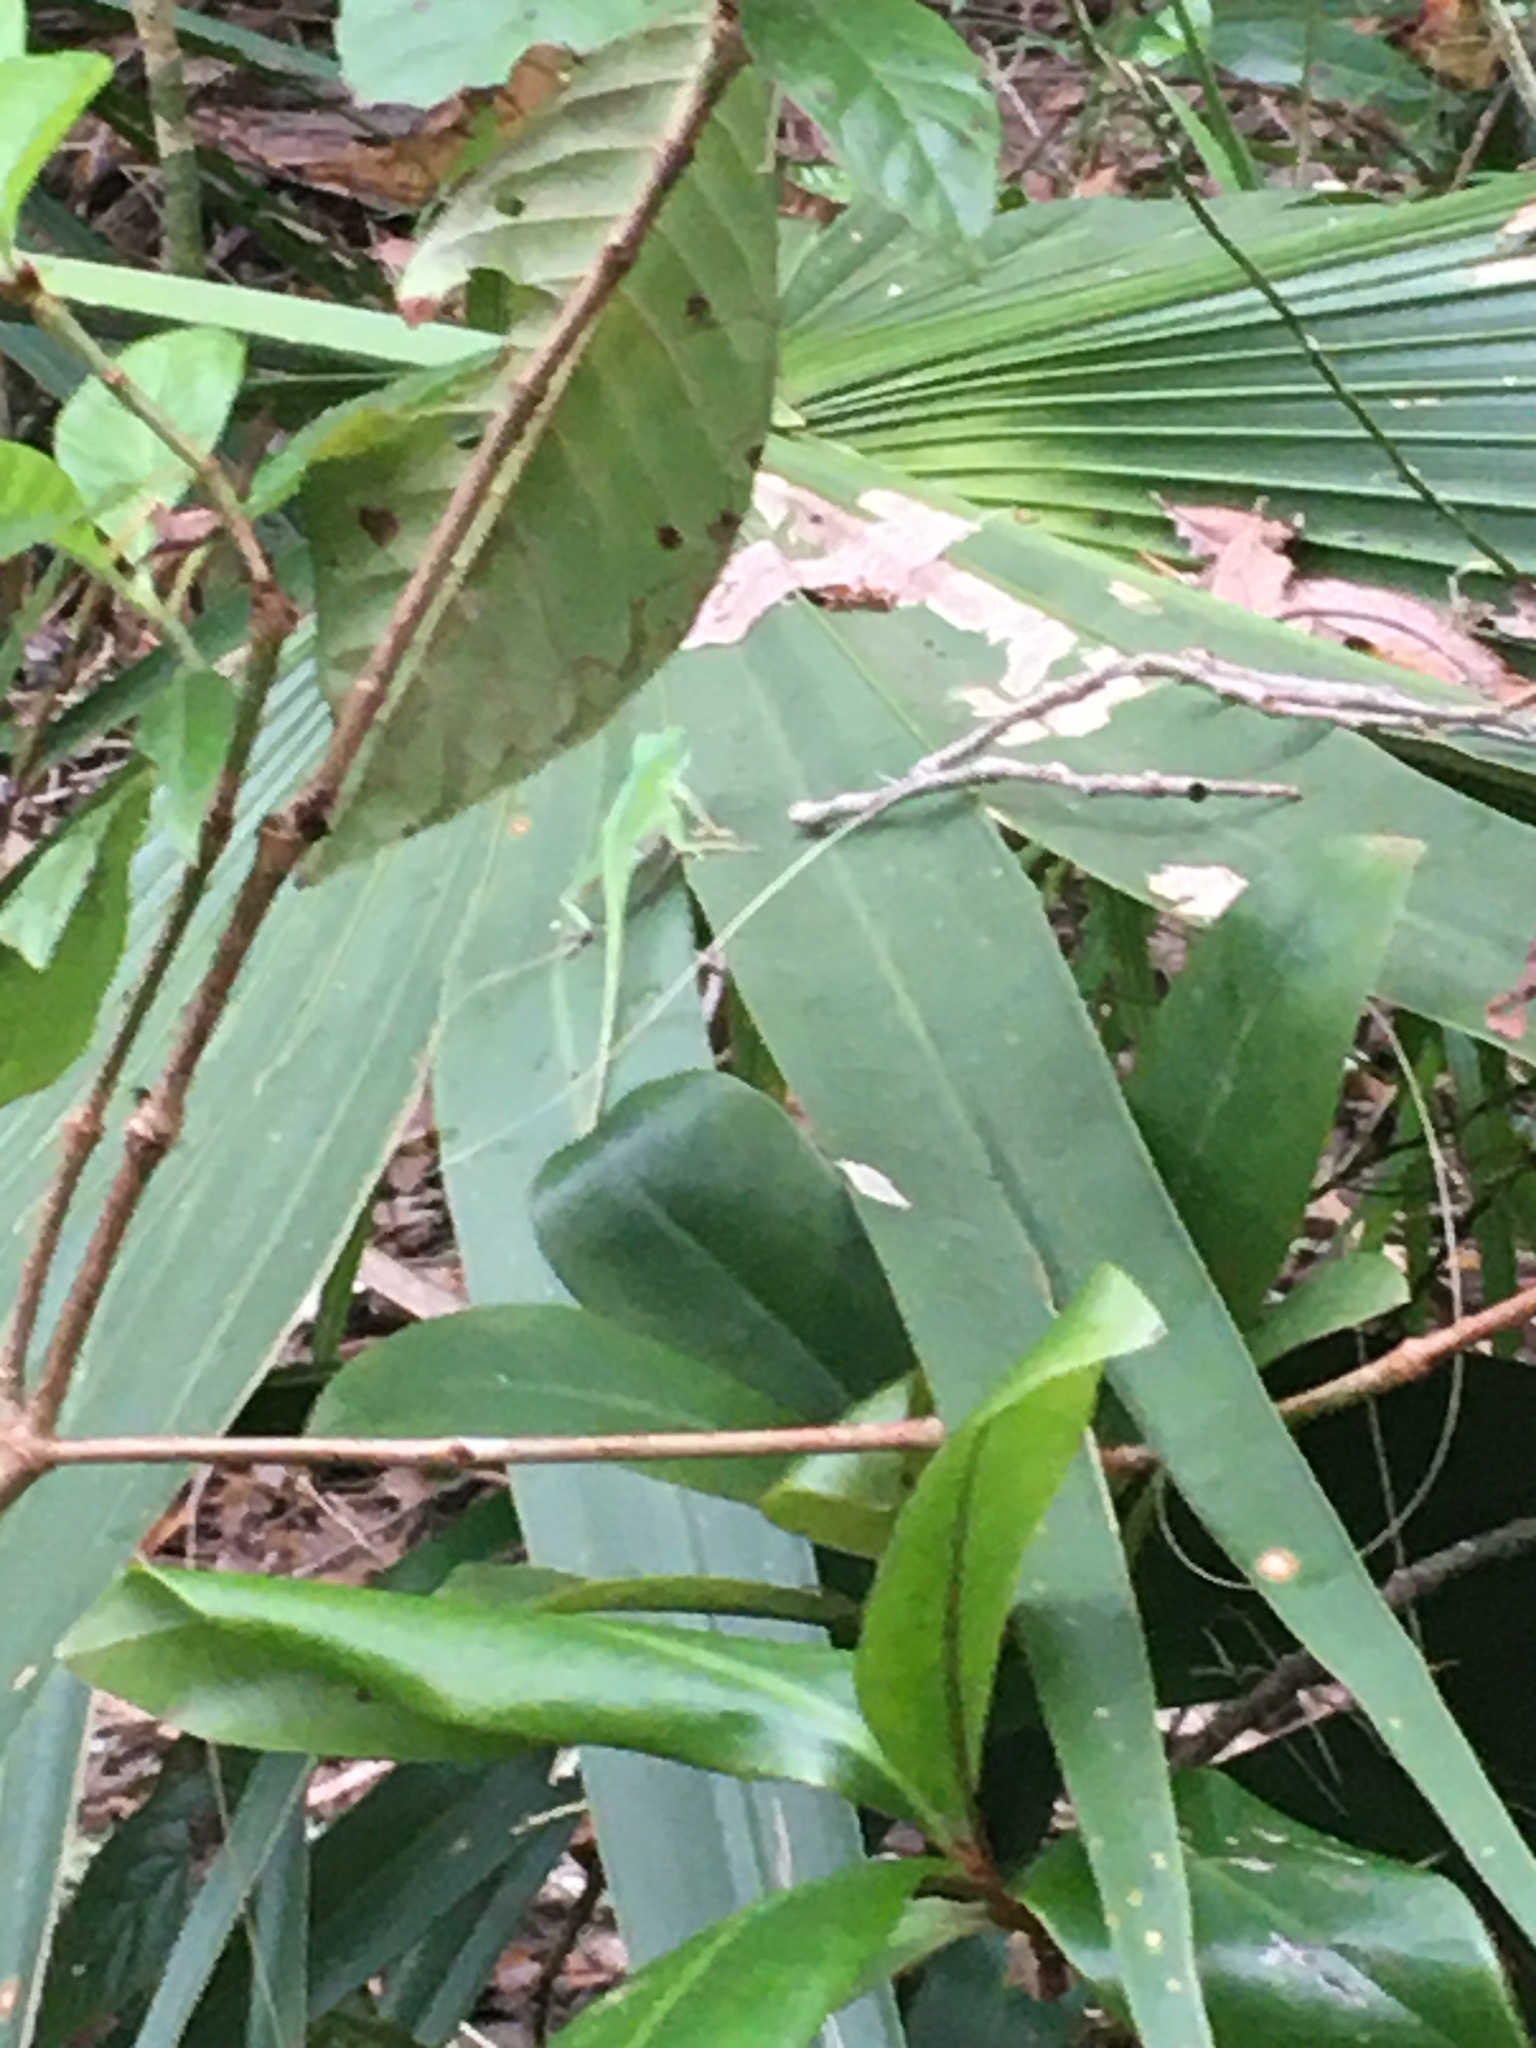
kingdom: Animalia
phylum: Chordata
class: Squamata
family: Dactyloidae
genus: Anolis
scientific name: Anolis carolinensis
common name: Green anole
